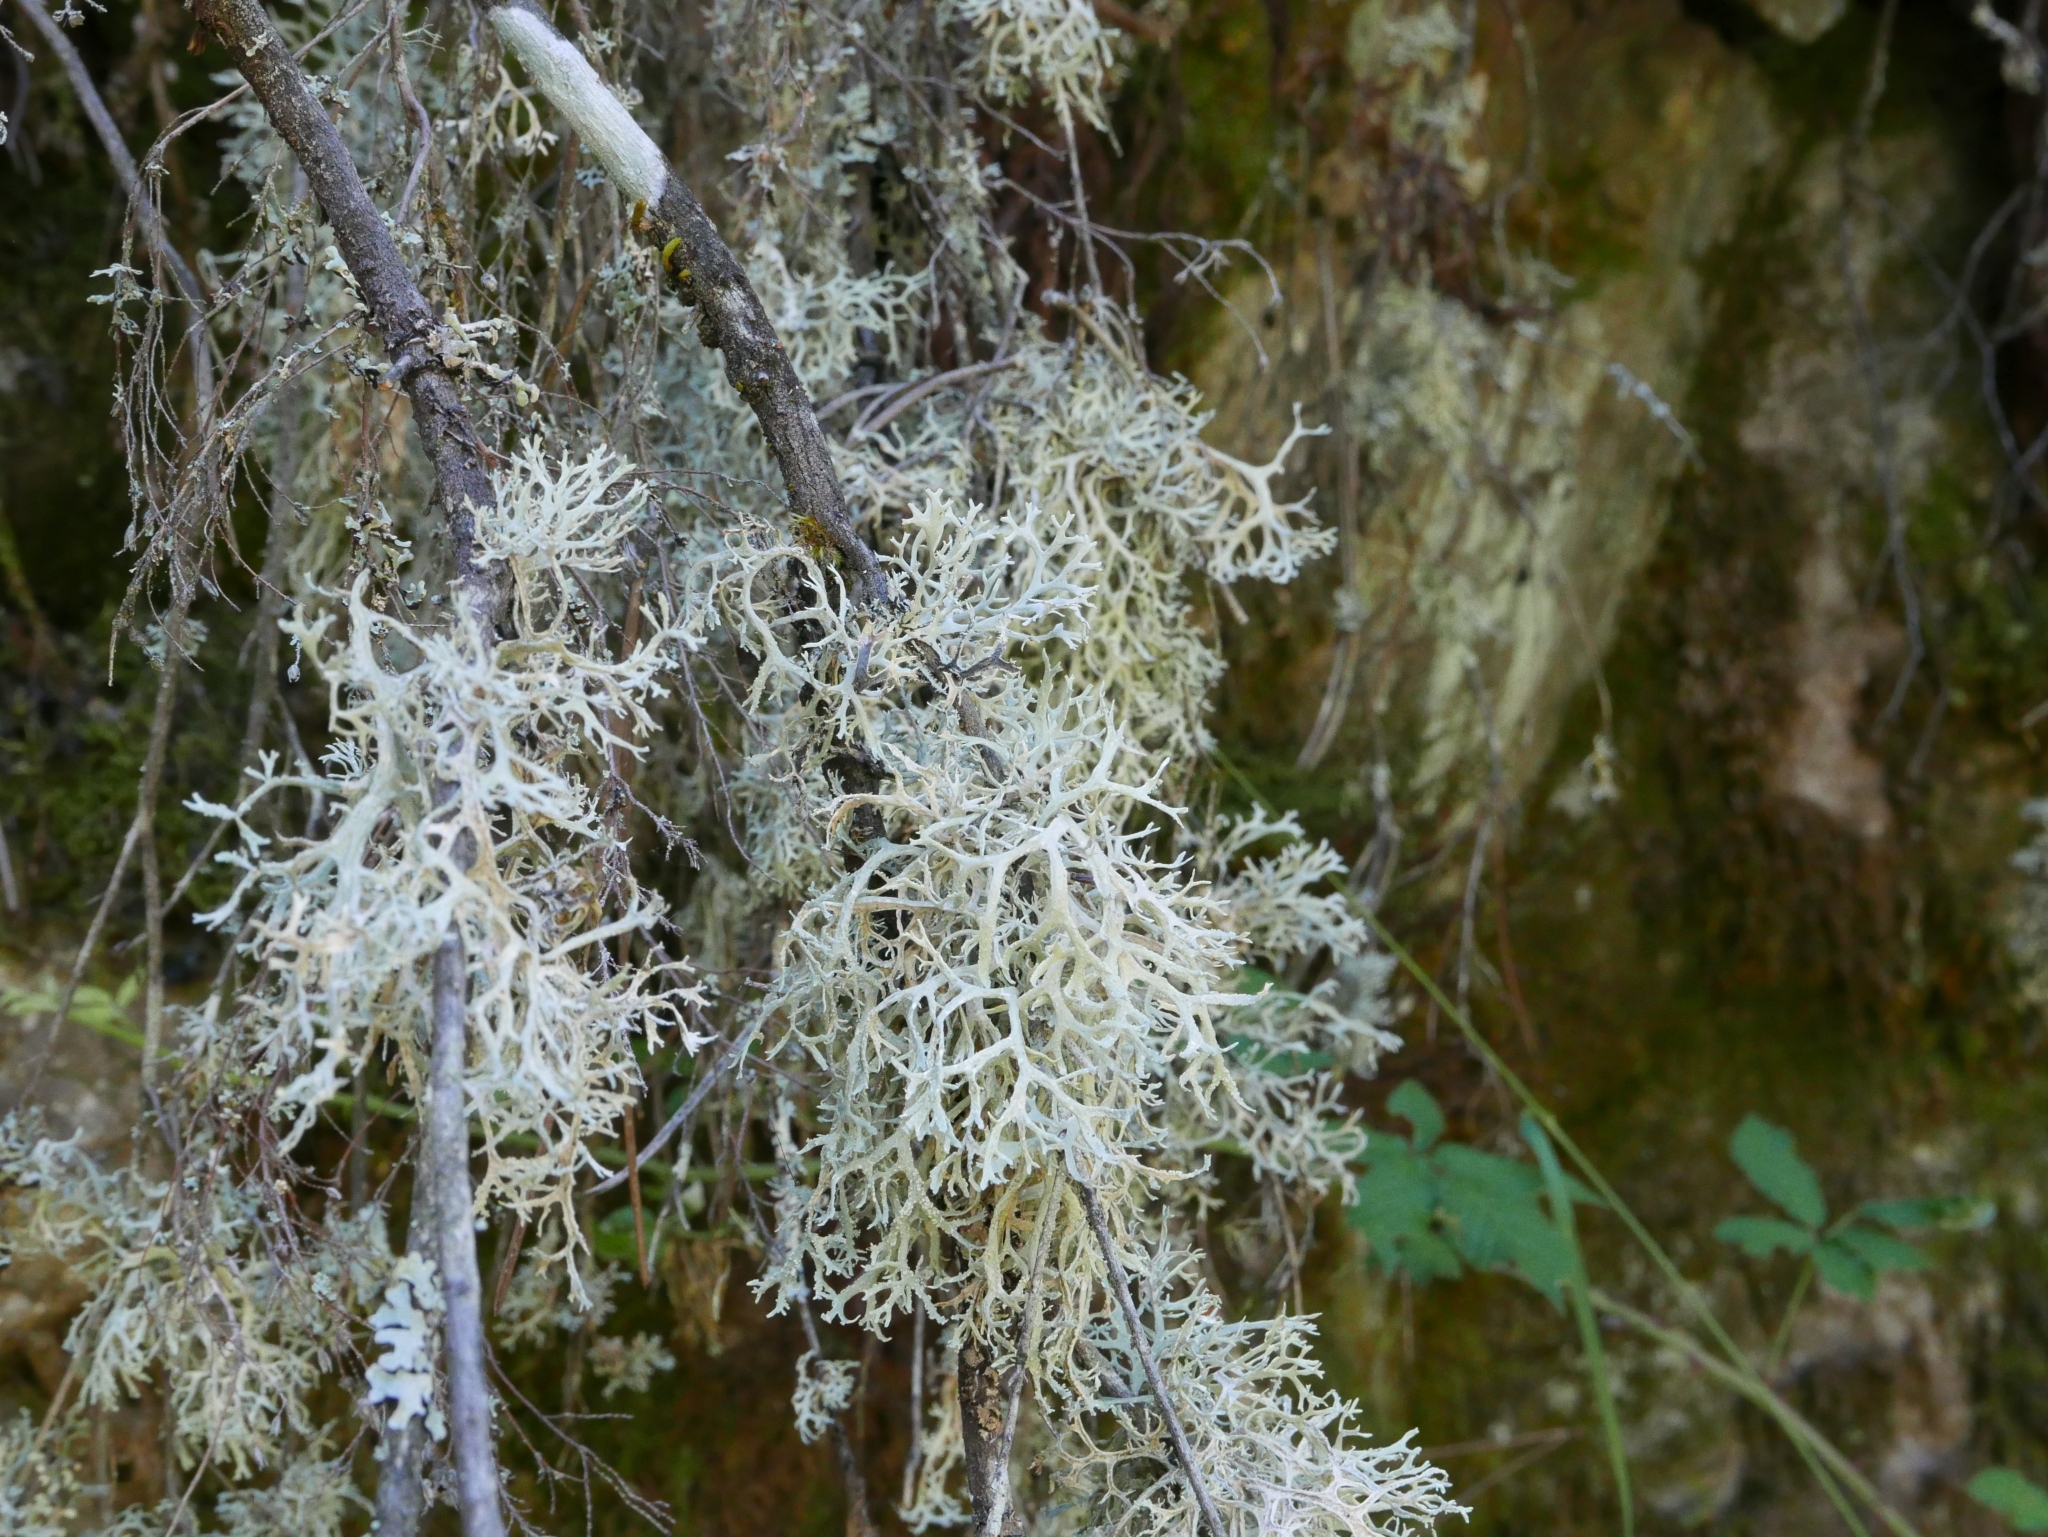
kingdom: Fungi
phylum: Ascomycota
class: Lecanoromycetes
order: Lecanorales
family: Parmeliaceae
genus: Evernia
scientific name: Evernia prunastri
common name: Oak moss
